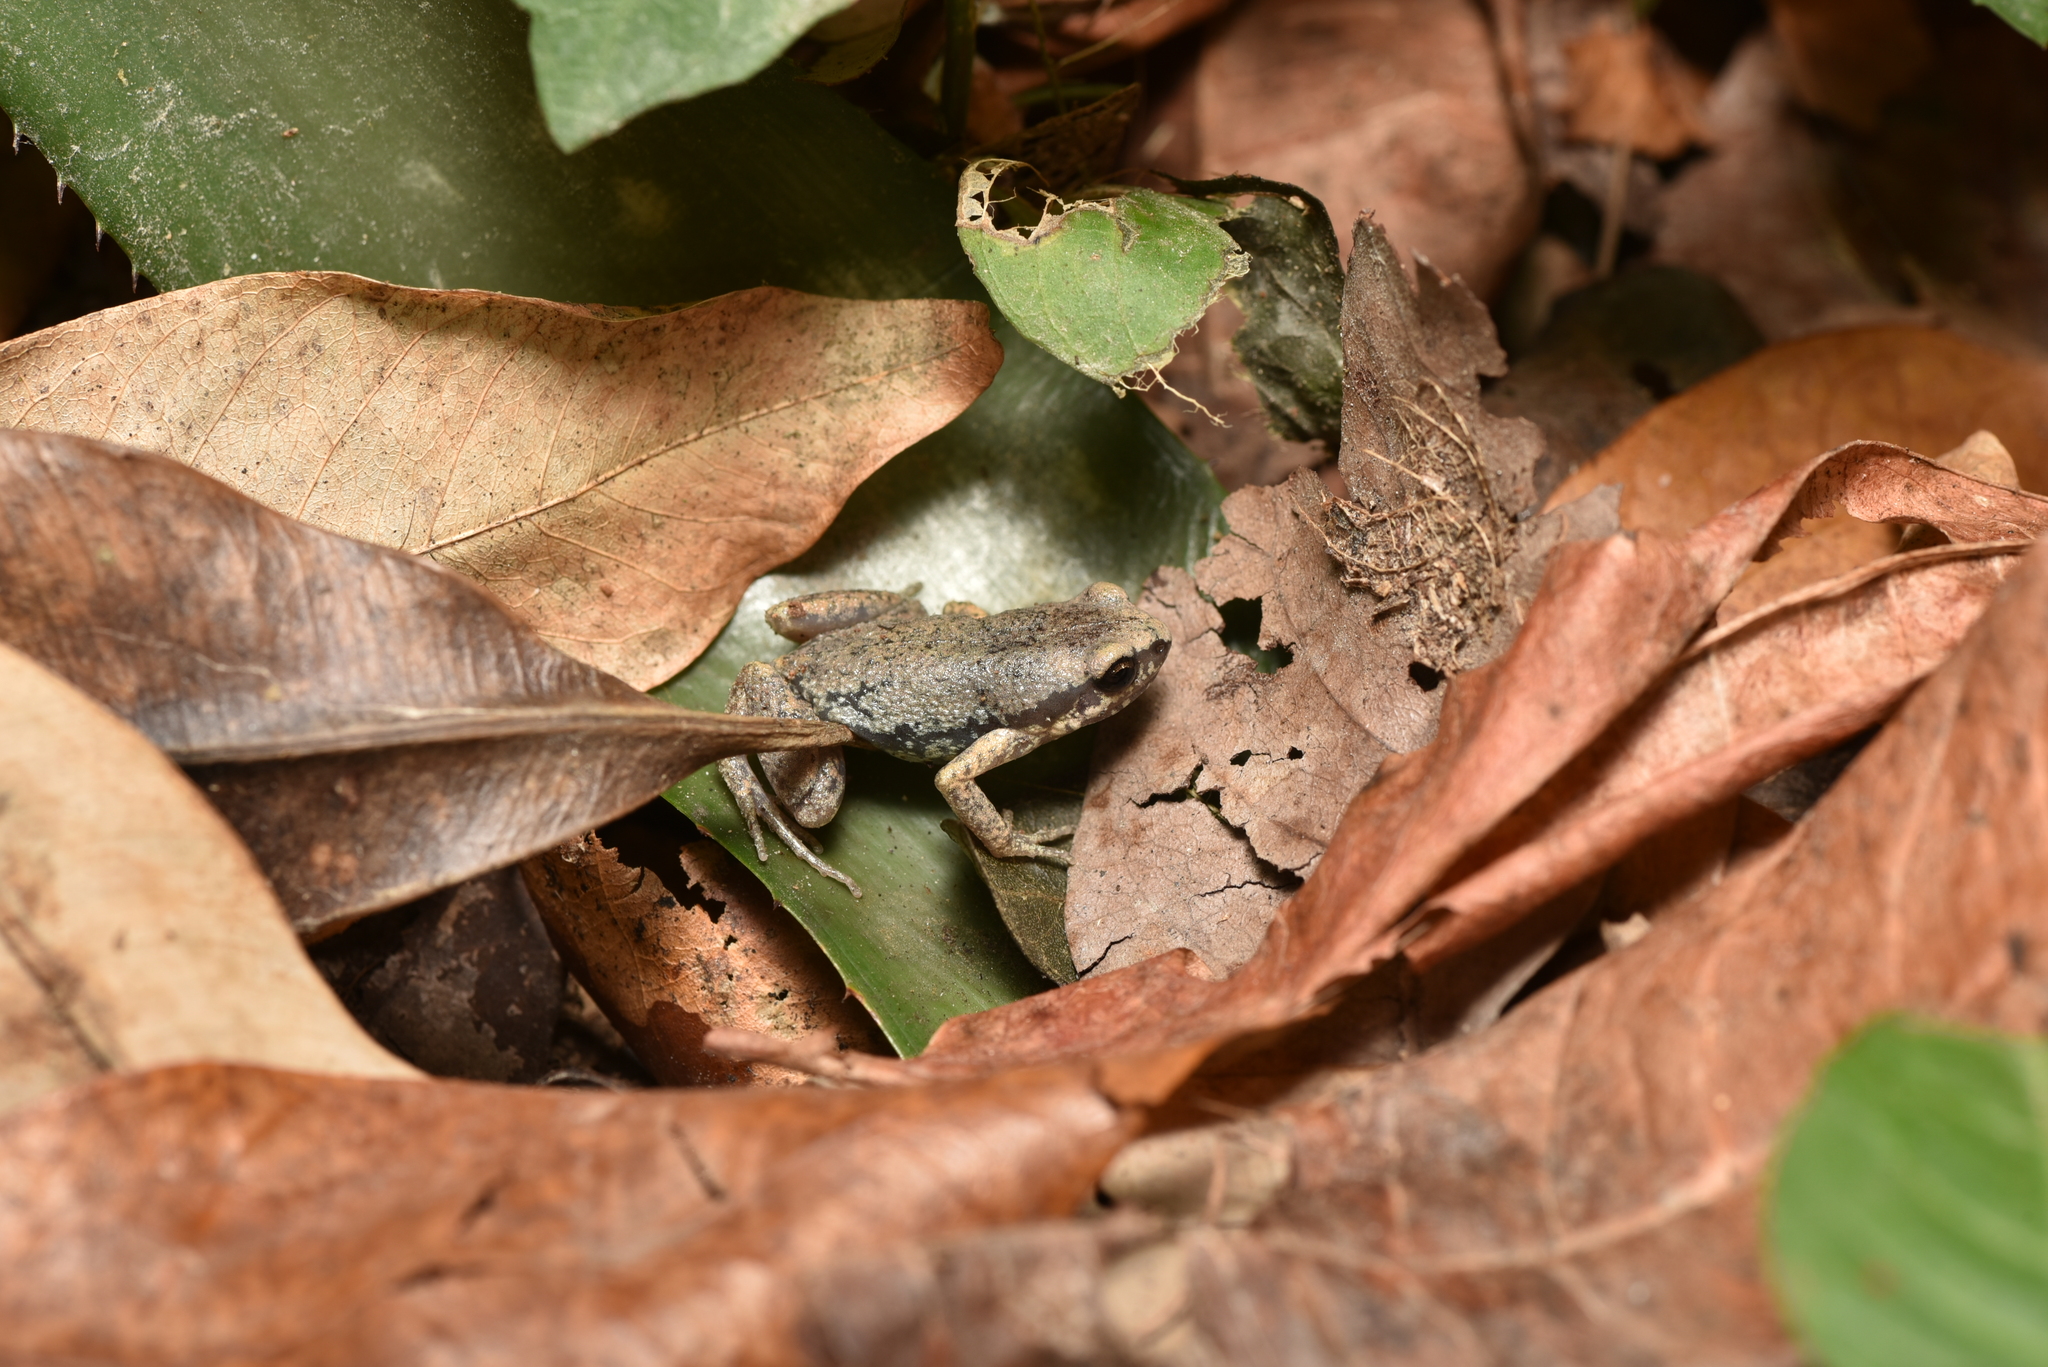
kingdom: Animalia
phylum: Chordata
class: Amphibia
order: Anura
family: Microhylidae
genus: Micryletta
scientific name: Micryletta steinegeri
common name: Stejneger's paddy frog
